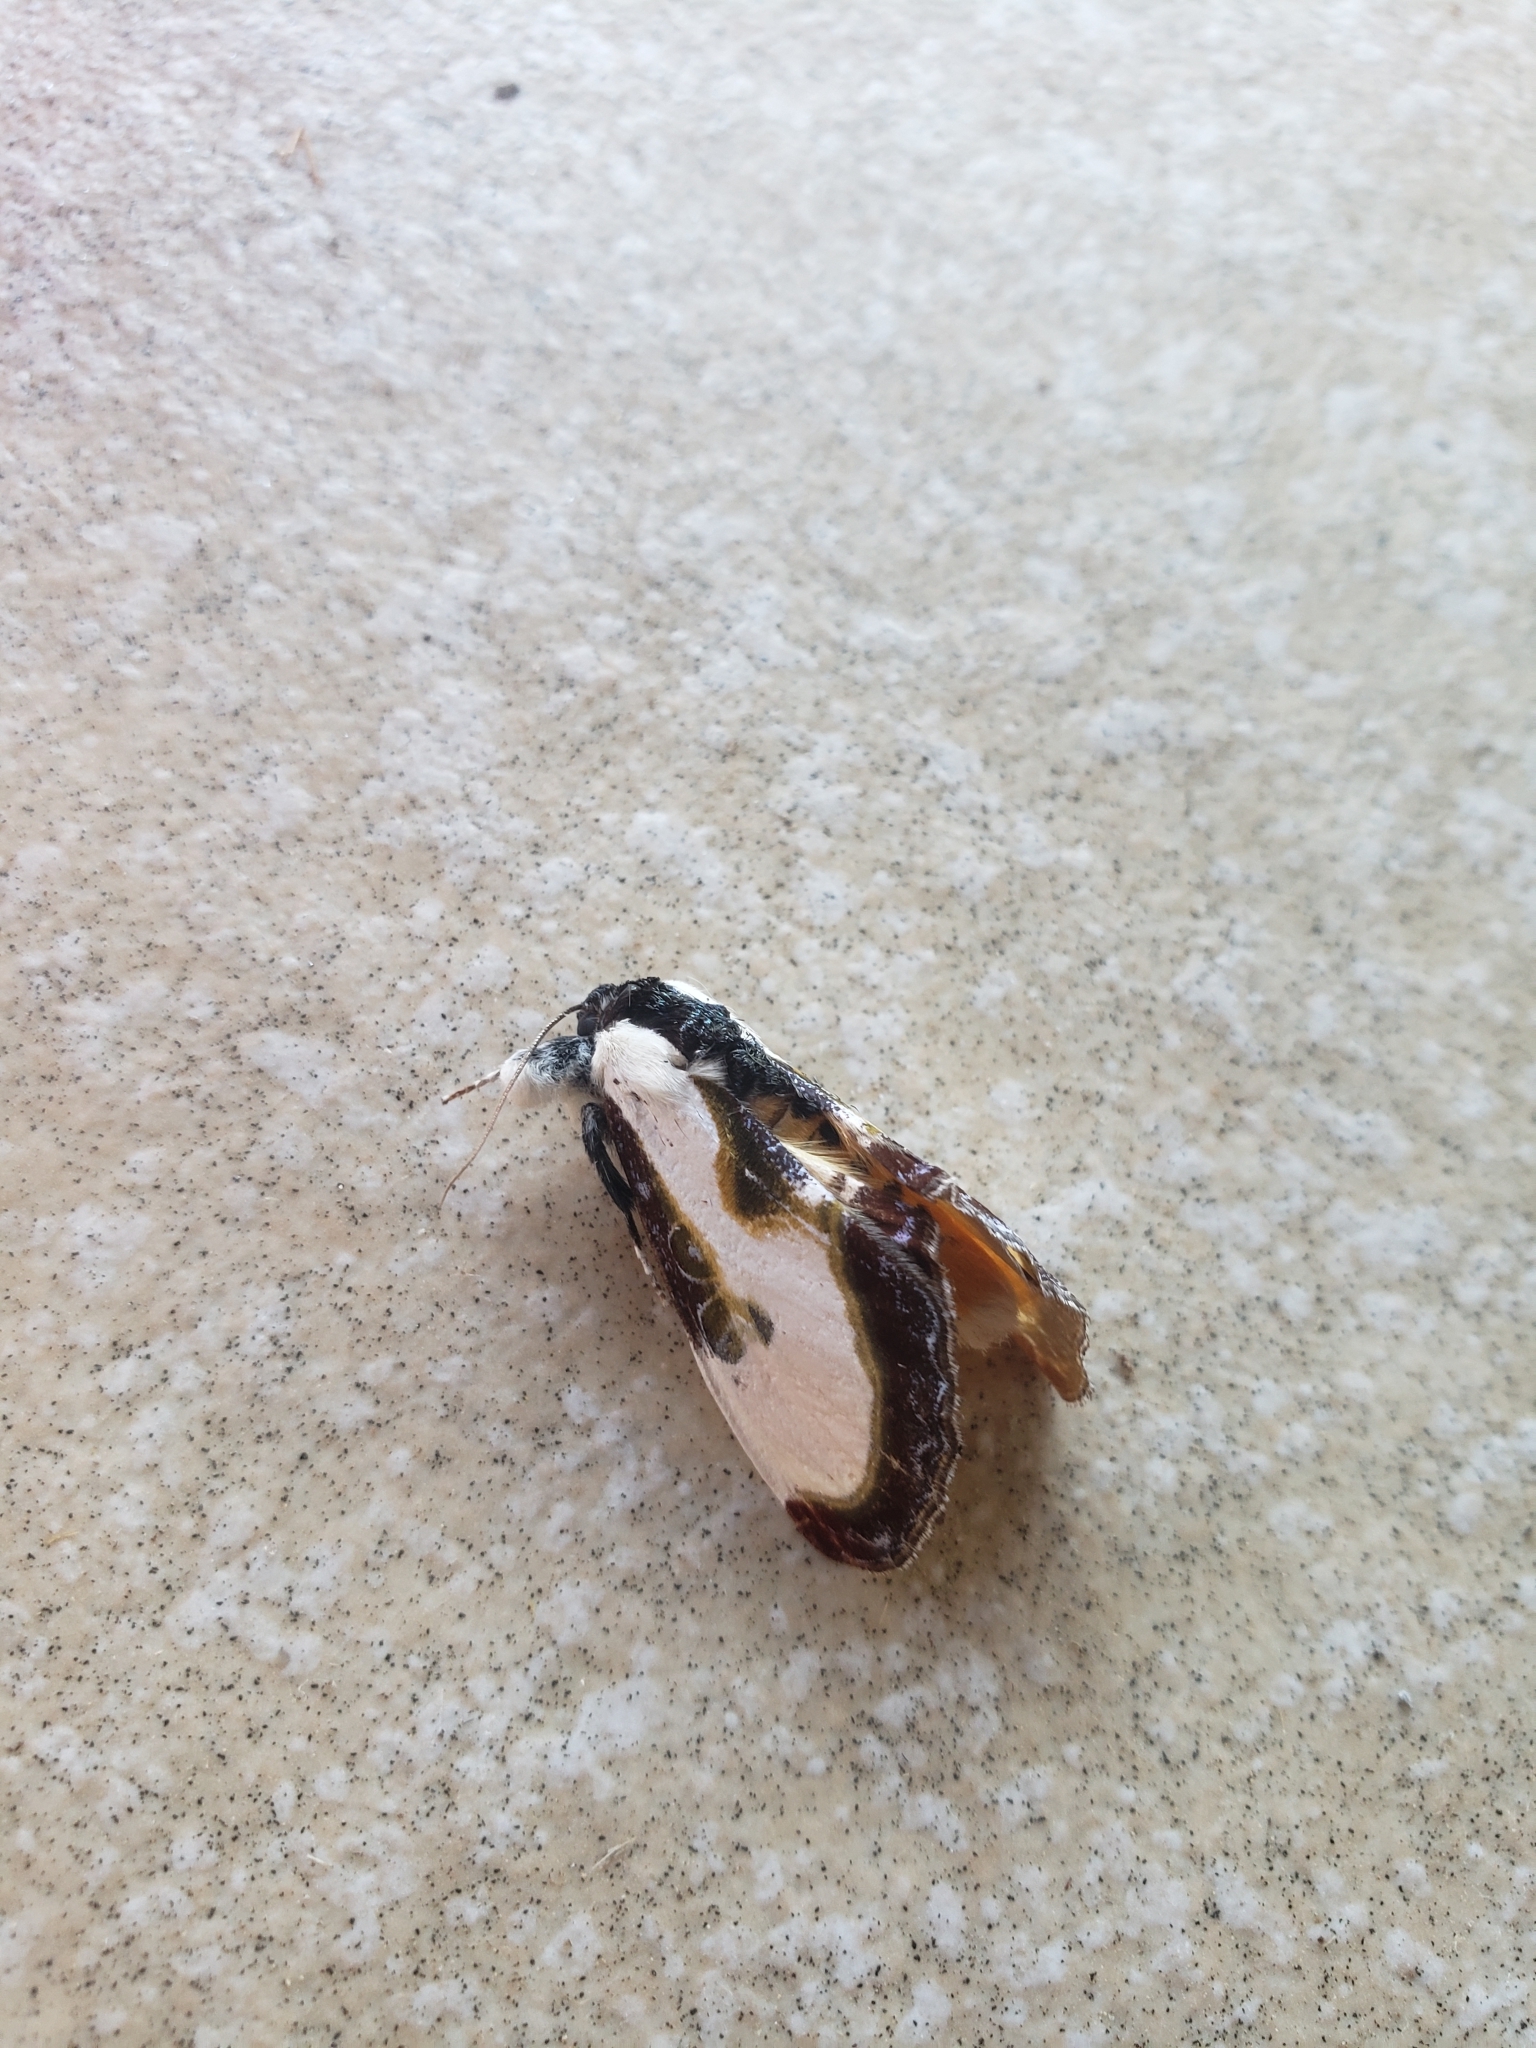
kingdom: Animalia
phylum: Arthropoda
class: Insecta
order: Lepidoptera
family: Noctuidae
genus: Eudryas
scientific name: Eudryas grata
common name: Beautiful wood-nymph
